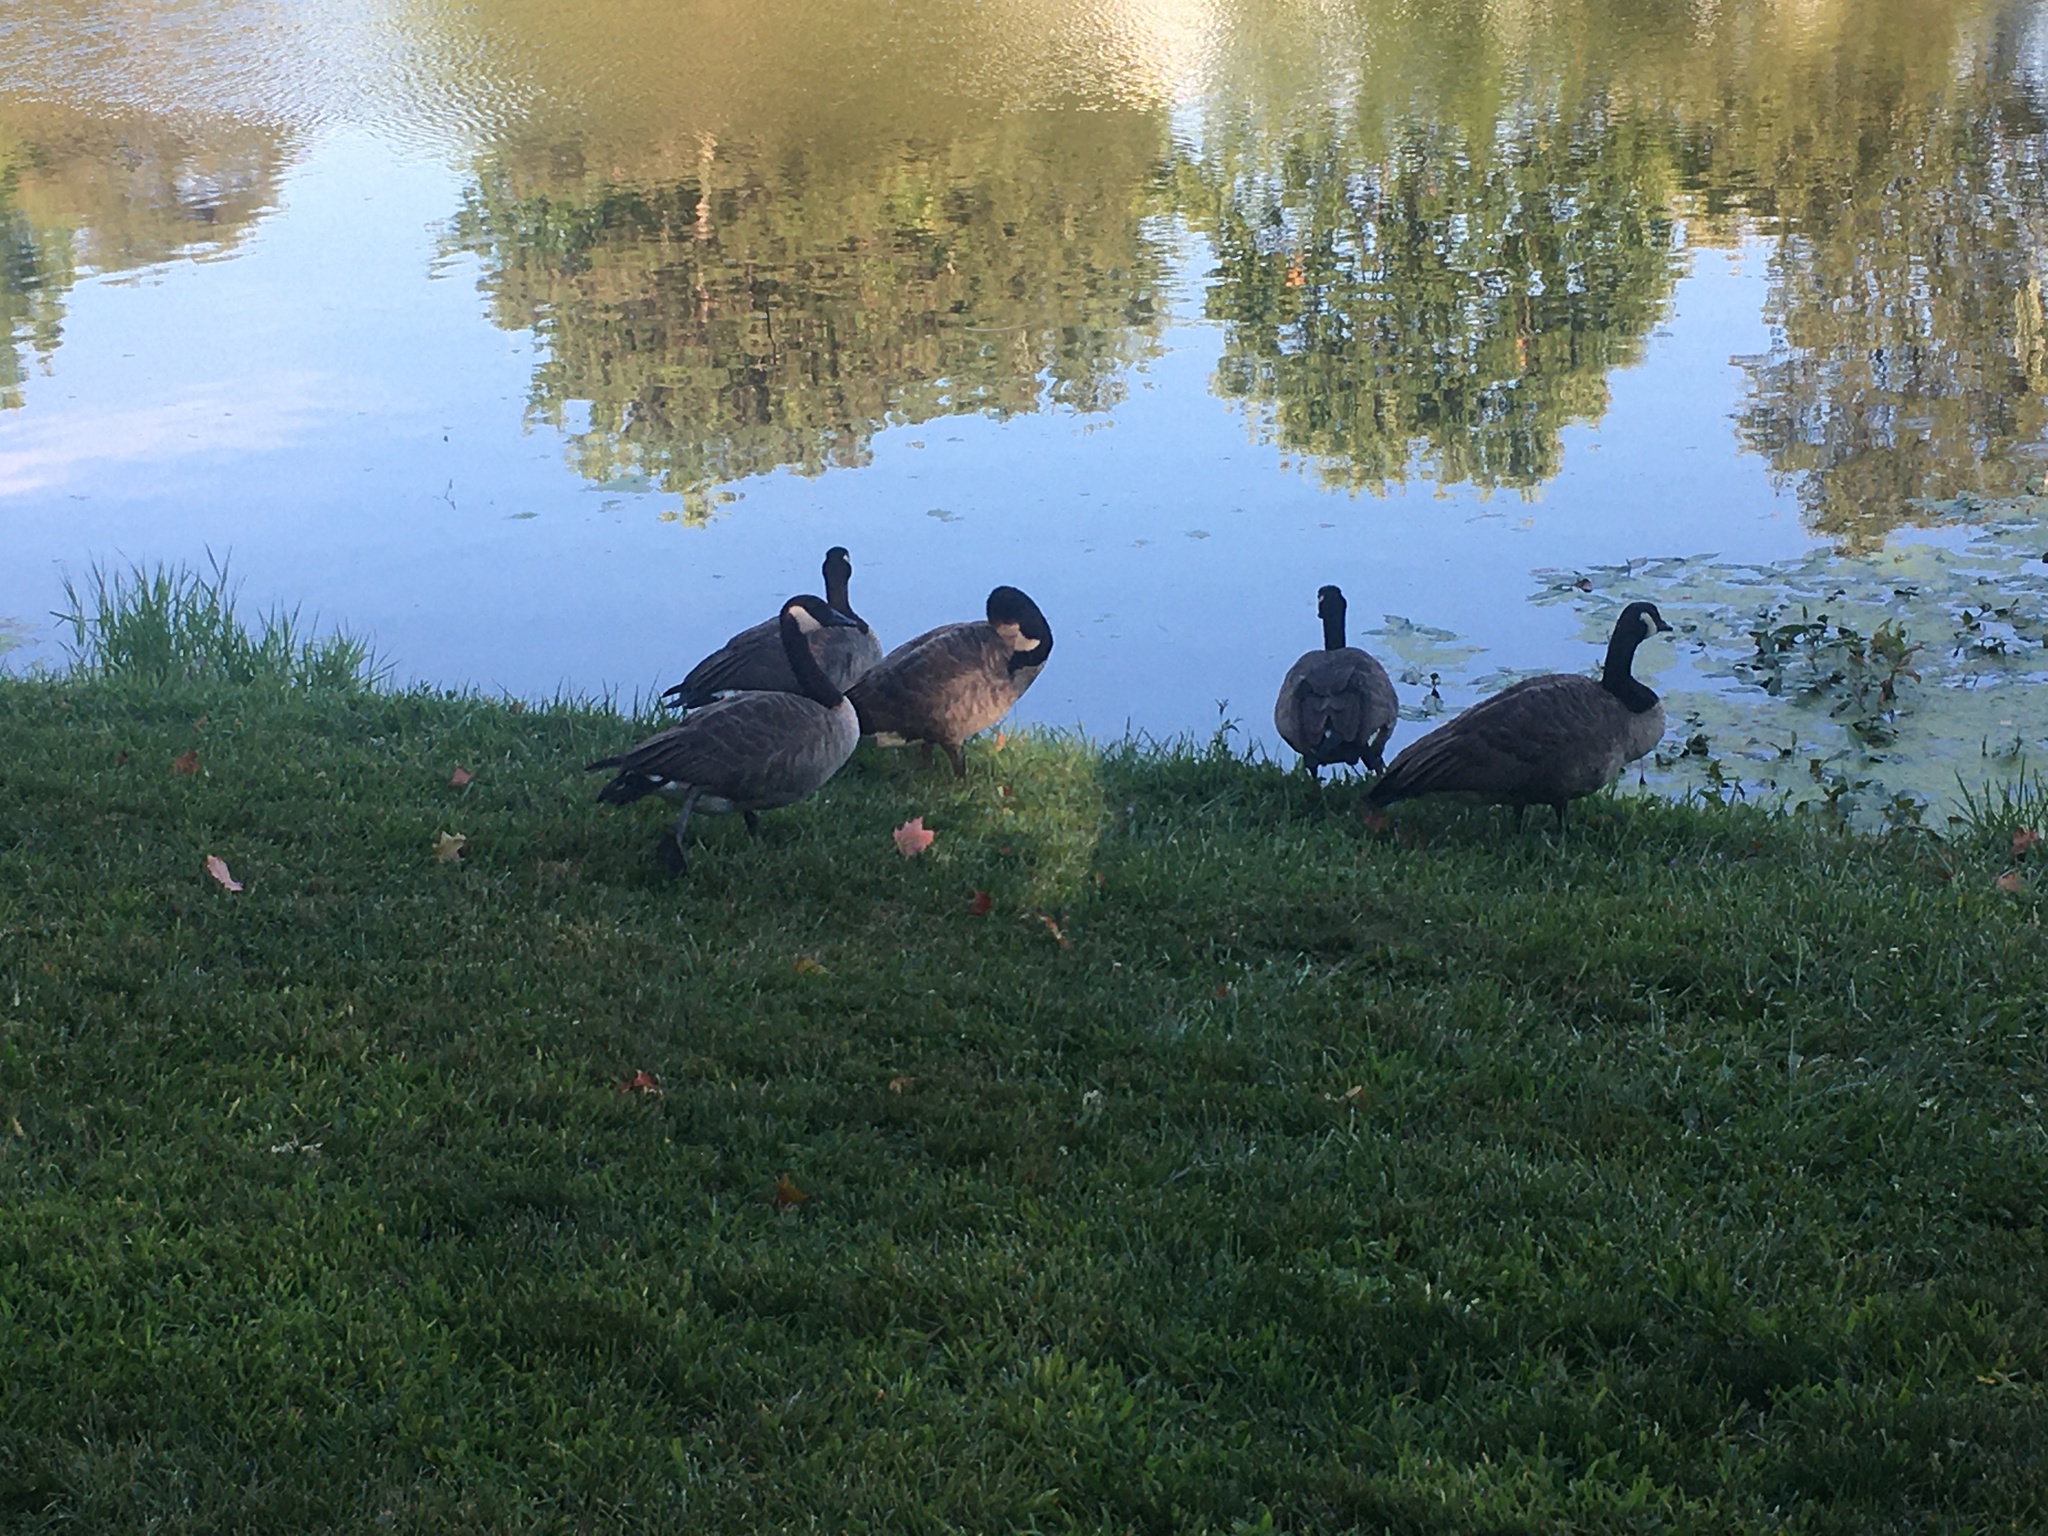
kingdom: Animalia
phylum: Chordata
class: Aves
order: Anseriformes
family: Anatidae
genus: Branta
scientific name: Branta canadensis
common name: Canada goose
